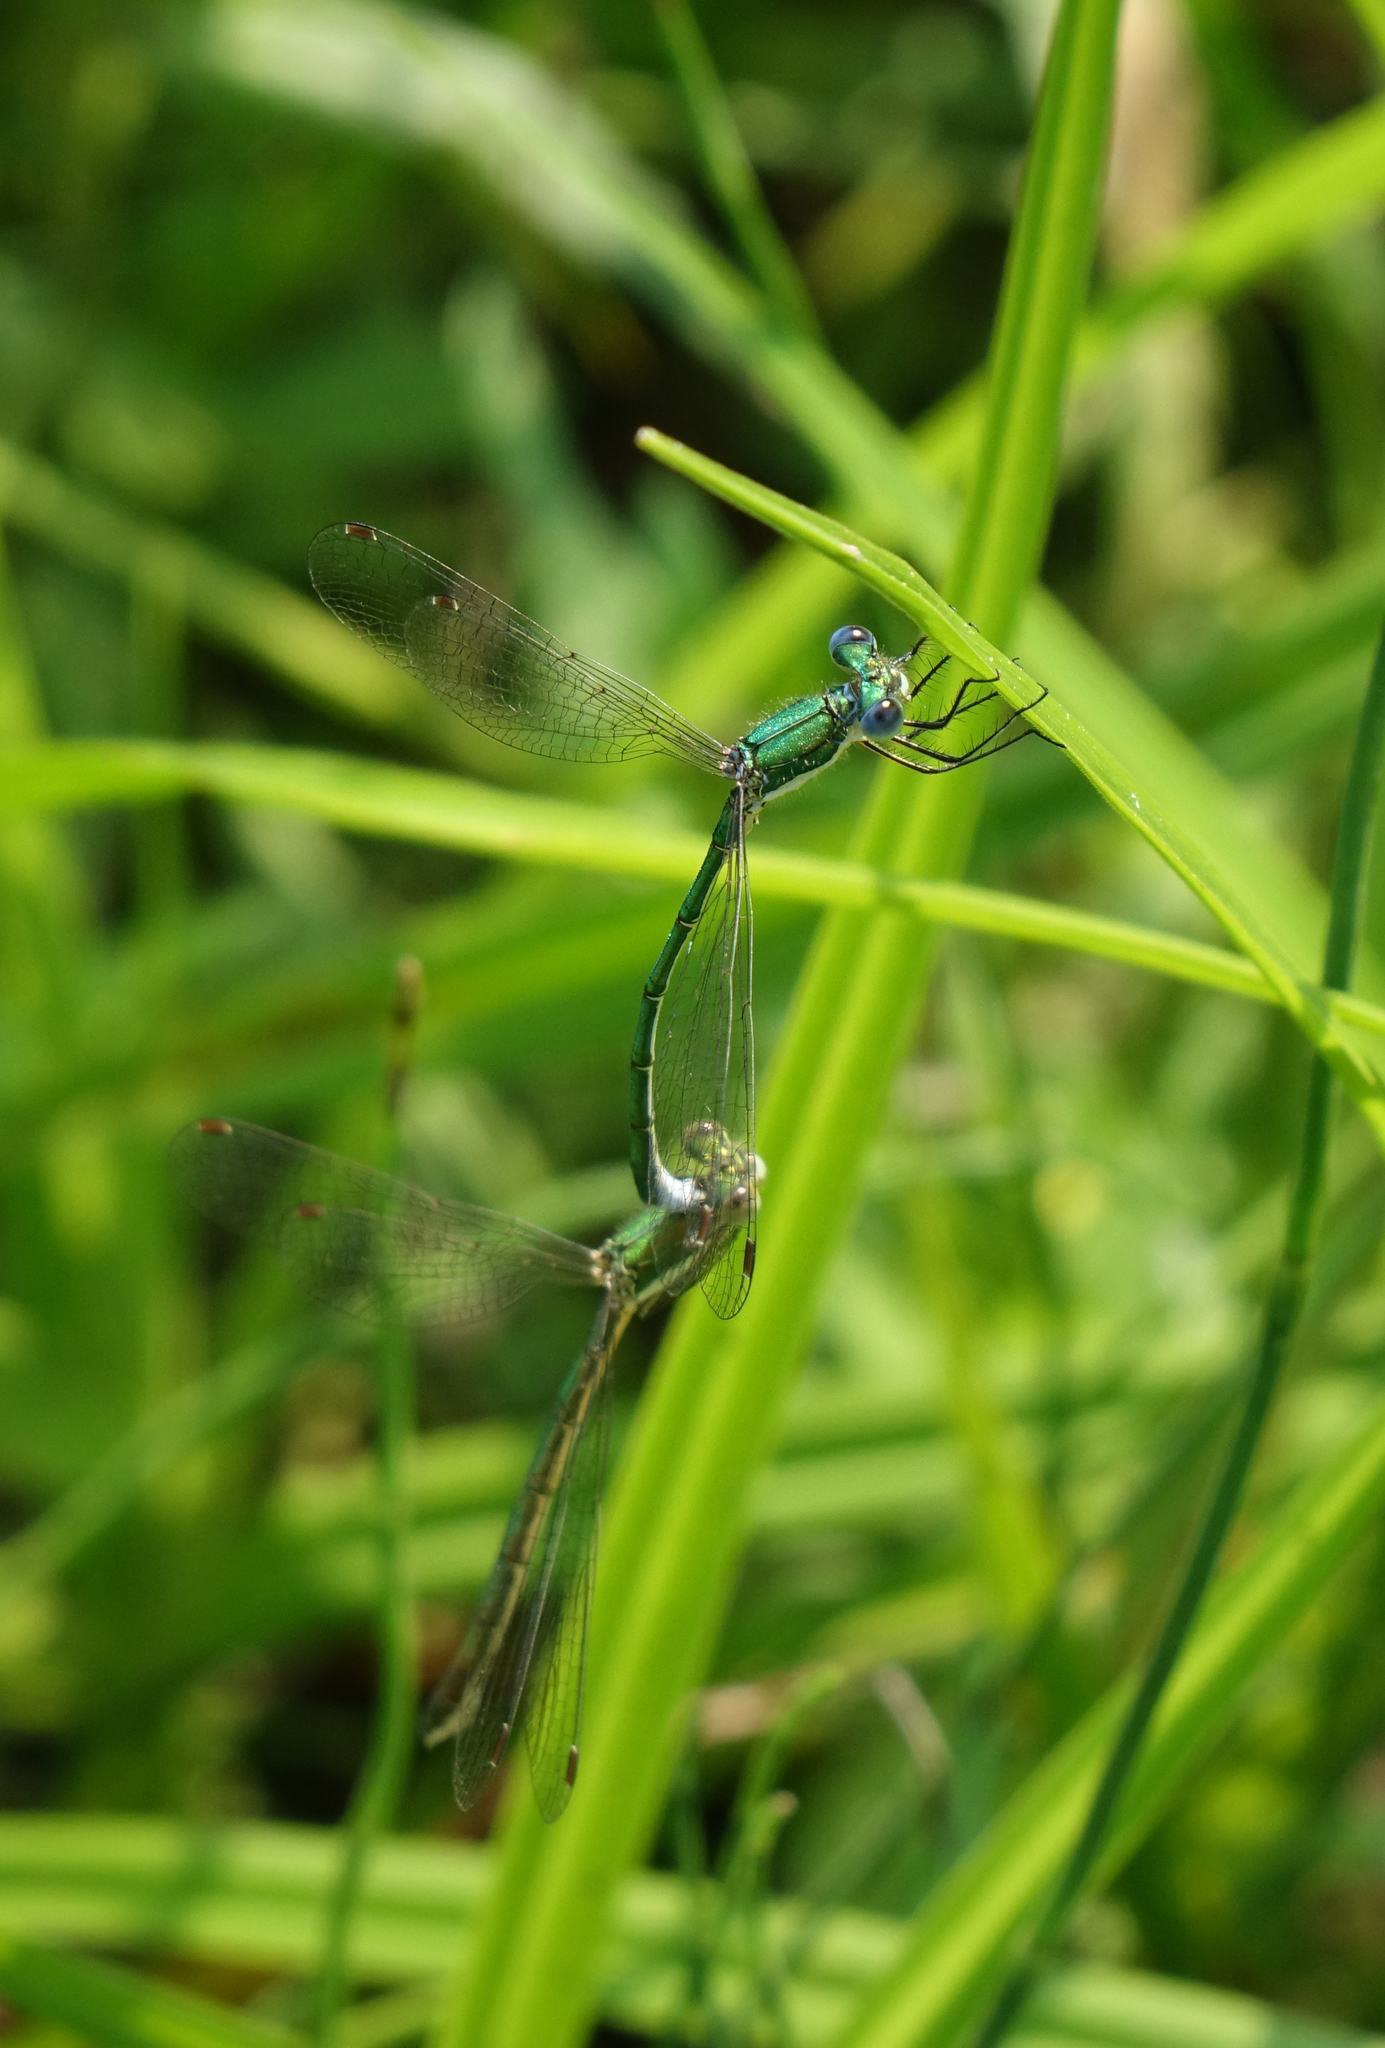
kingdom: Animalia
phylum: Arthropoda
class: Insecta
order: Odonata
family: Lestidae
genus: Lestes
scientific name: Lestes virens
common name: Small emerald spreadwing
